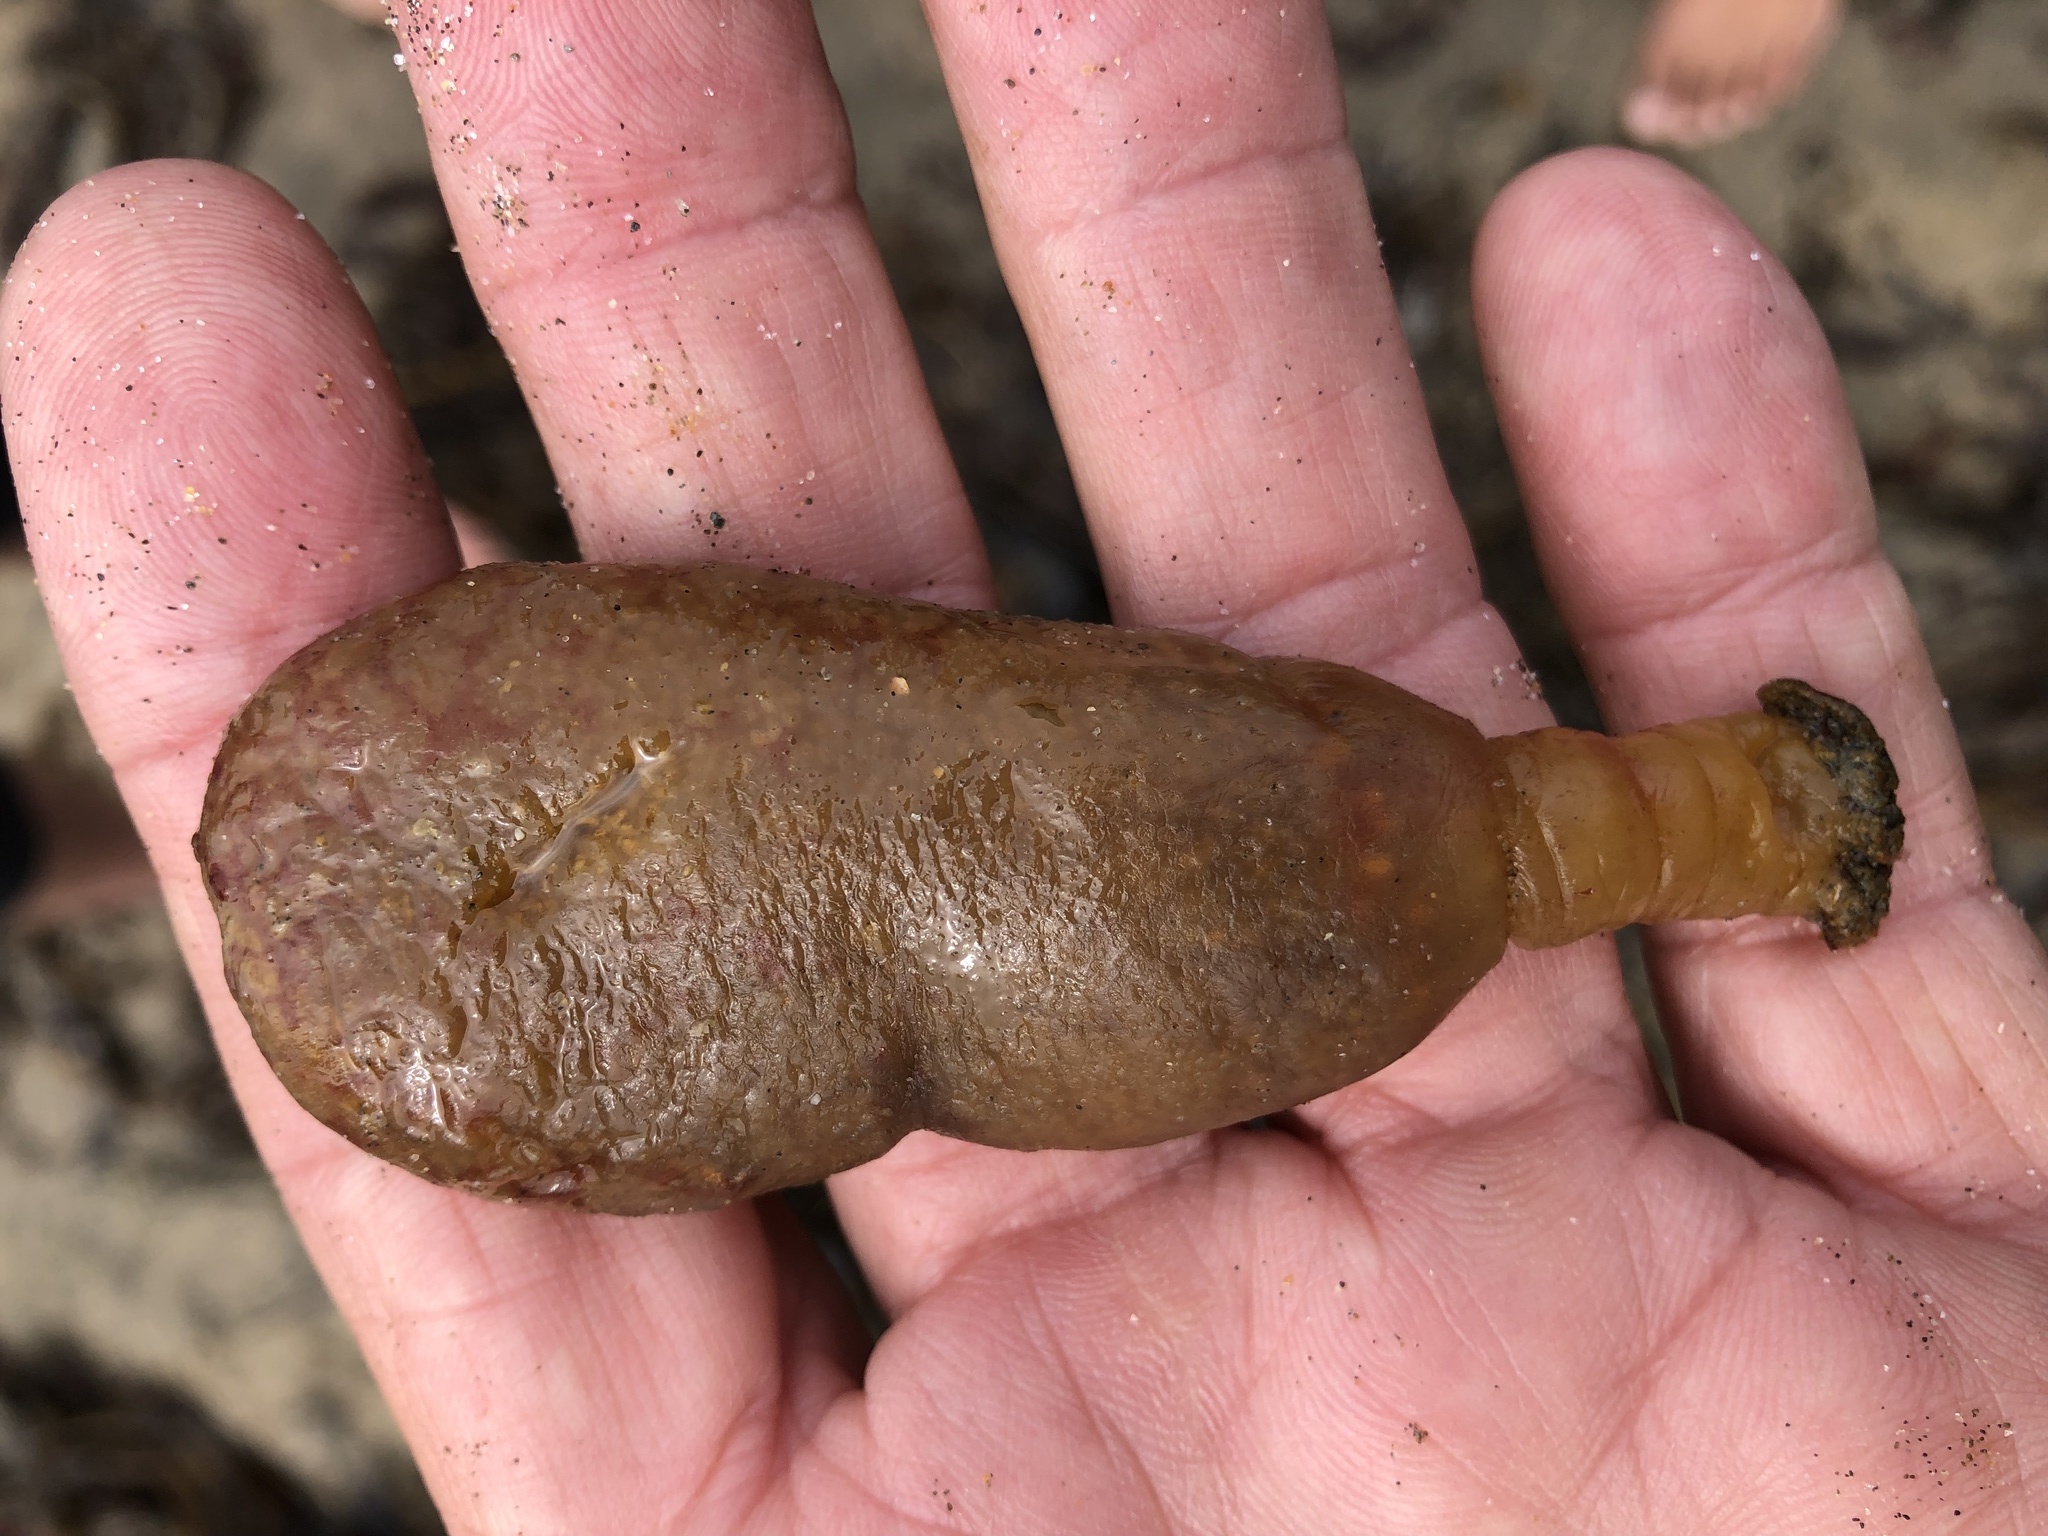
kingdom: Animalia
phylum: Chordata
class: Ascidiacea
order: Aplousobranchia
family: Polyclinidae
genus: Aplidium
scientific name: Aplidium californicum
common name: Sea pork
